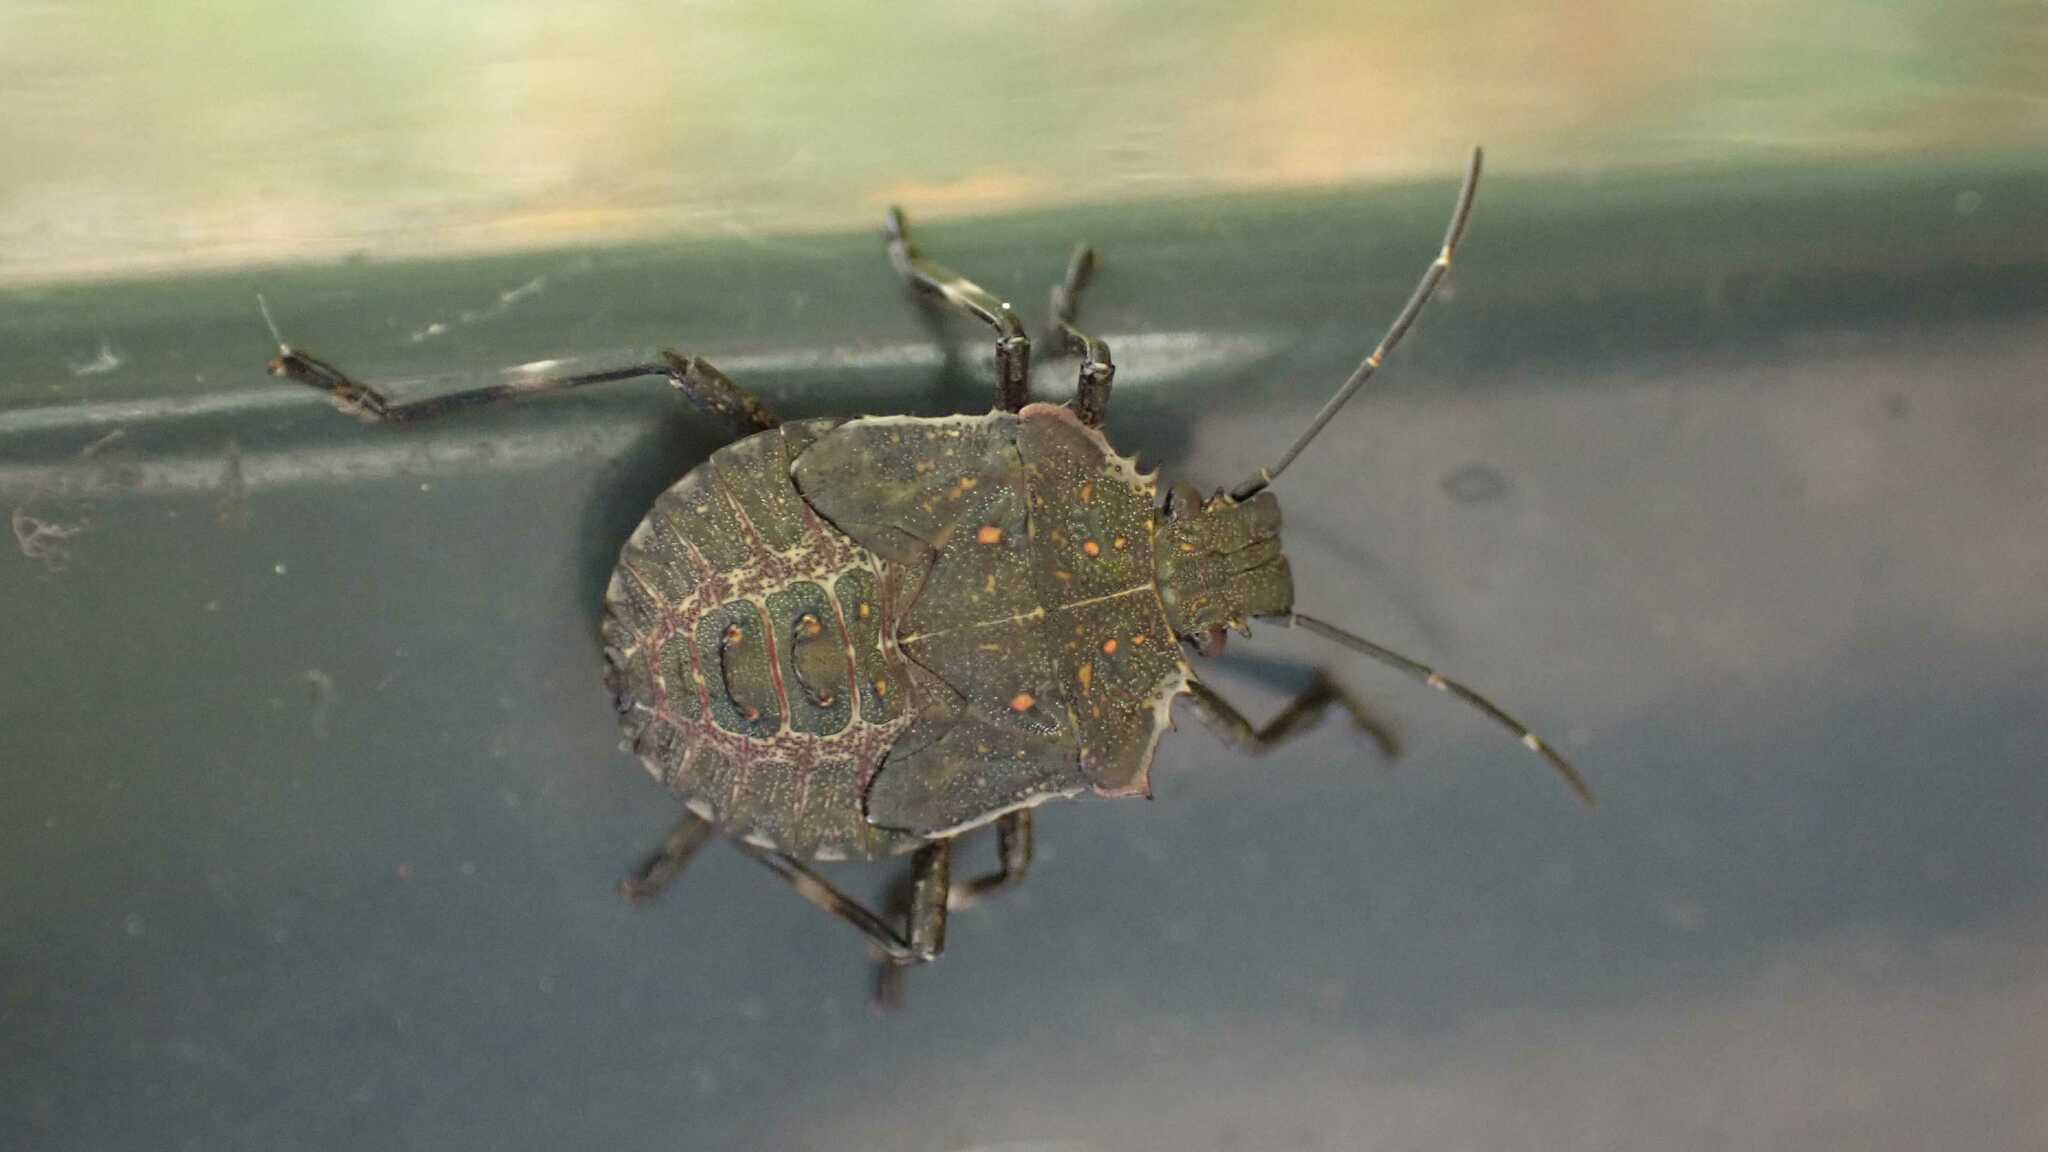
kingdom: Animalia
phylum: Arthropoda
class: Insecta
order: Hemiptera
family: Pentatomidae
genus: Halyomorpha
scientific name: Halyomorpha halys
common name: Brown marmorated stink bug
